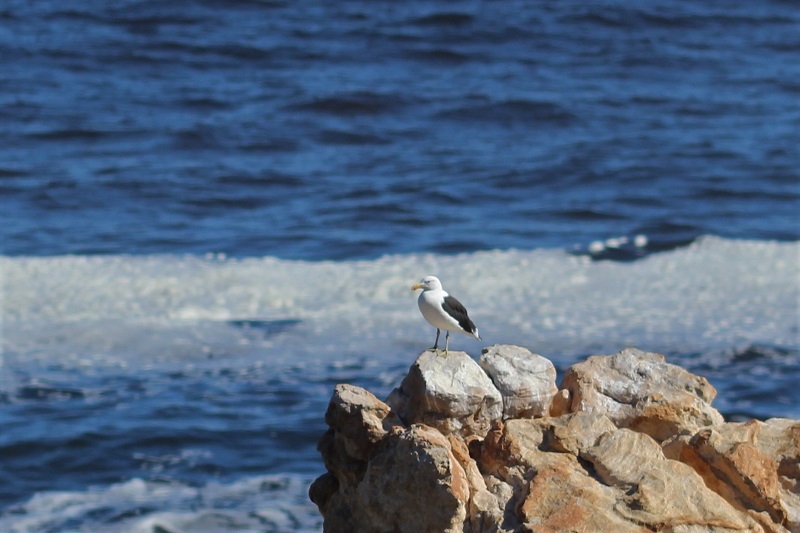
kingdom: Animalia
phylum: Chordata
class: Aves
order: Charadriiformes
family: Laridae
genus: Larus
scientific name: Larus dominicanus
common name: Kelp gull
